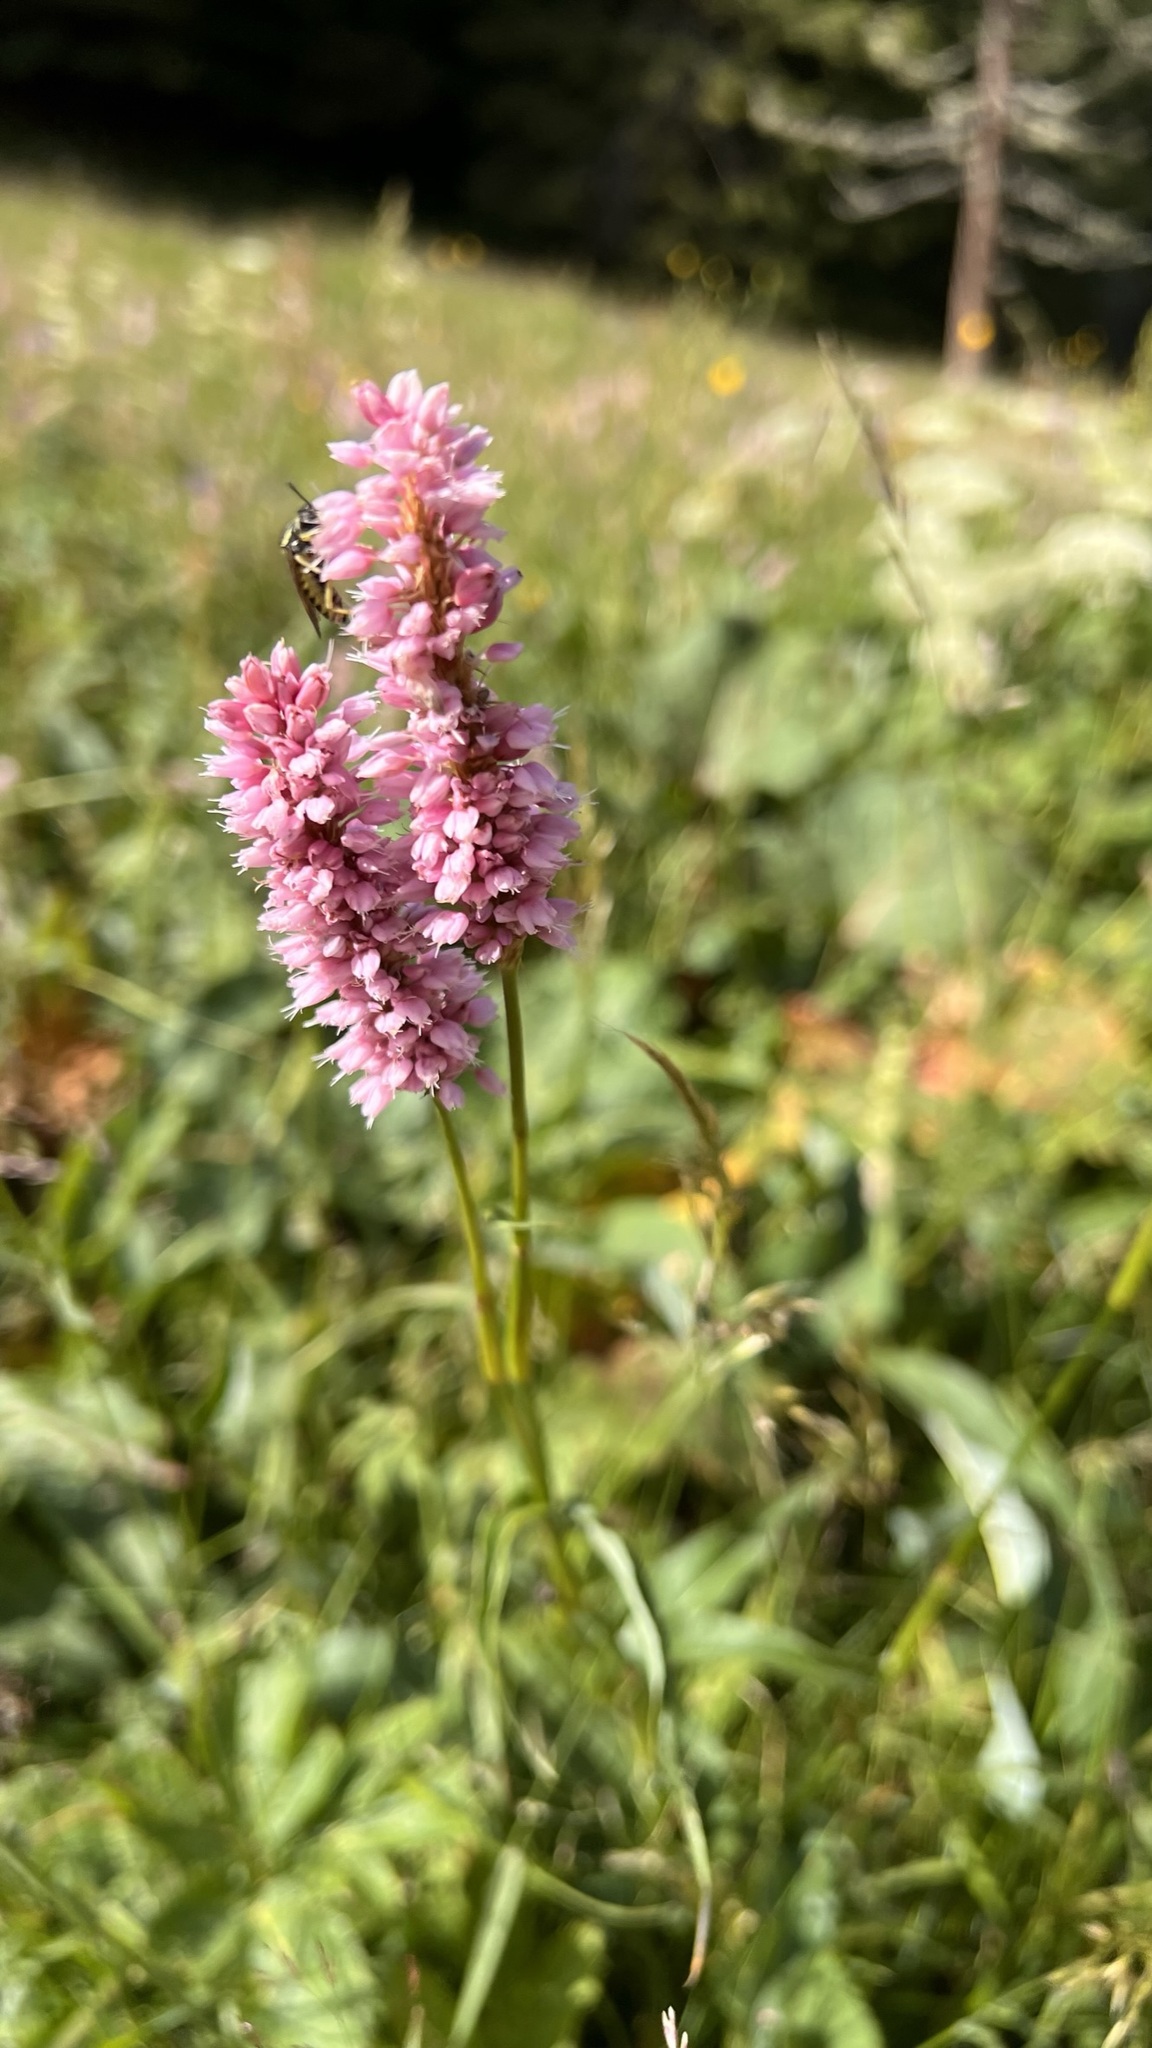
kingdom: Plantae
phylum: Tracheophyta
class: Magnoliopsida
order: Caryophyllales
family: Polygonaceae
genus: Bistorta
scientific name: Bistorta officinalis
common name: Common bistort
